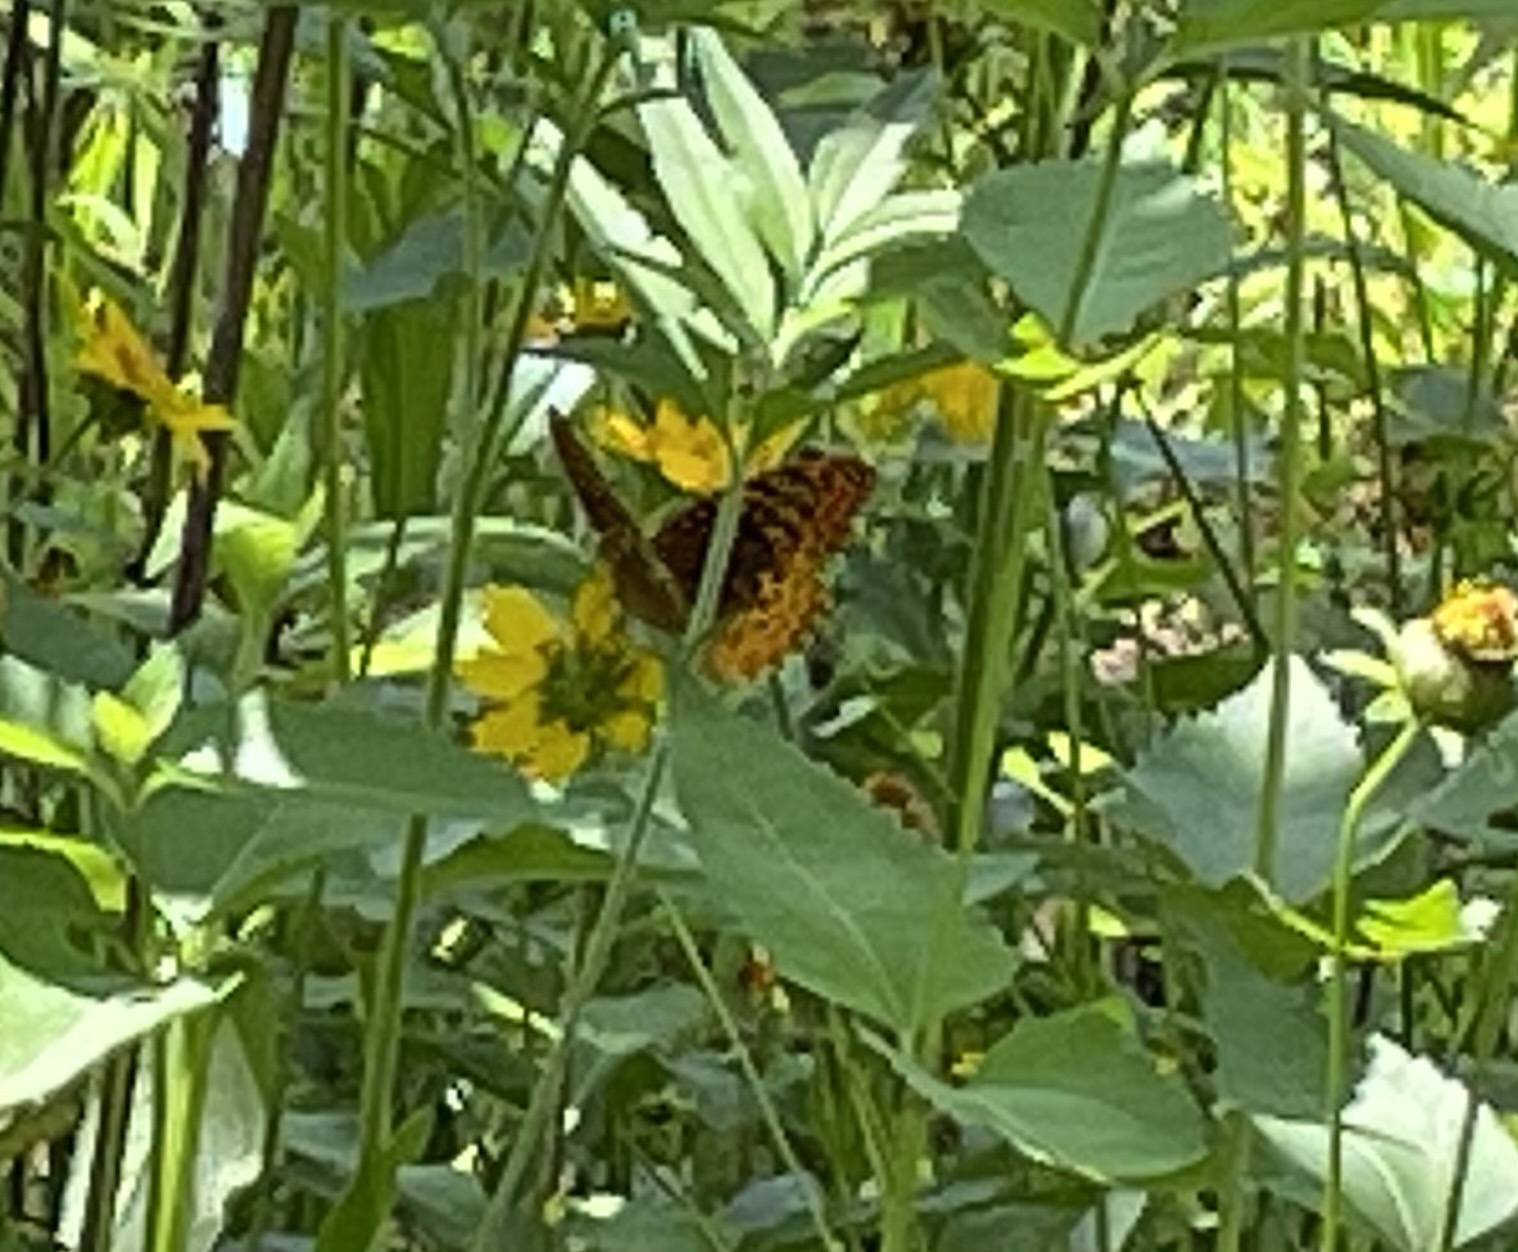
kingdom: Animalia
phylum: Arthropoda
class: Insecta
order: Lepidoptera
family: Nymphalidae
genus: Speyeria
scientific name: Speyeria cybele
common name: Great spangled fritillary
